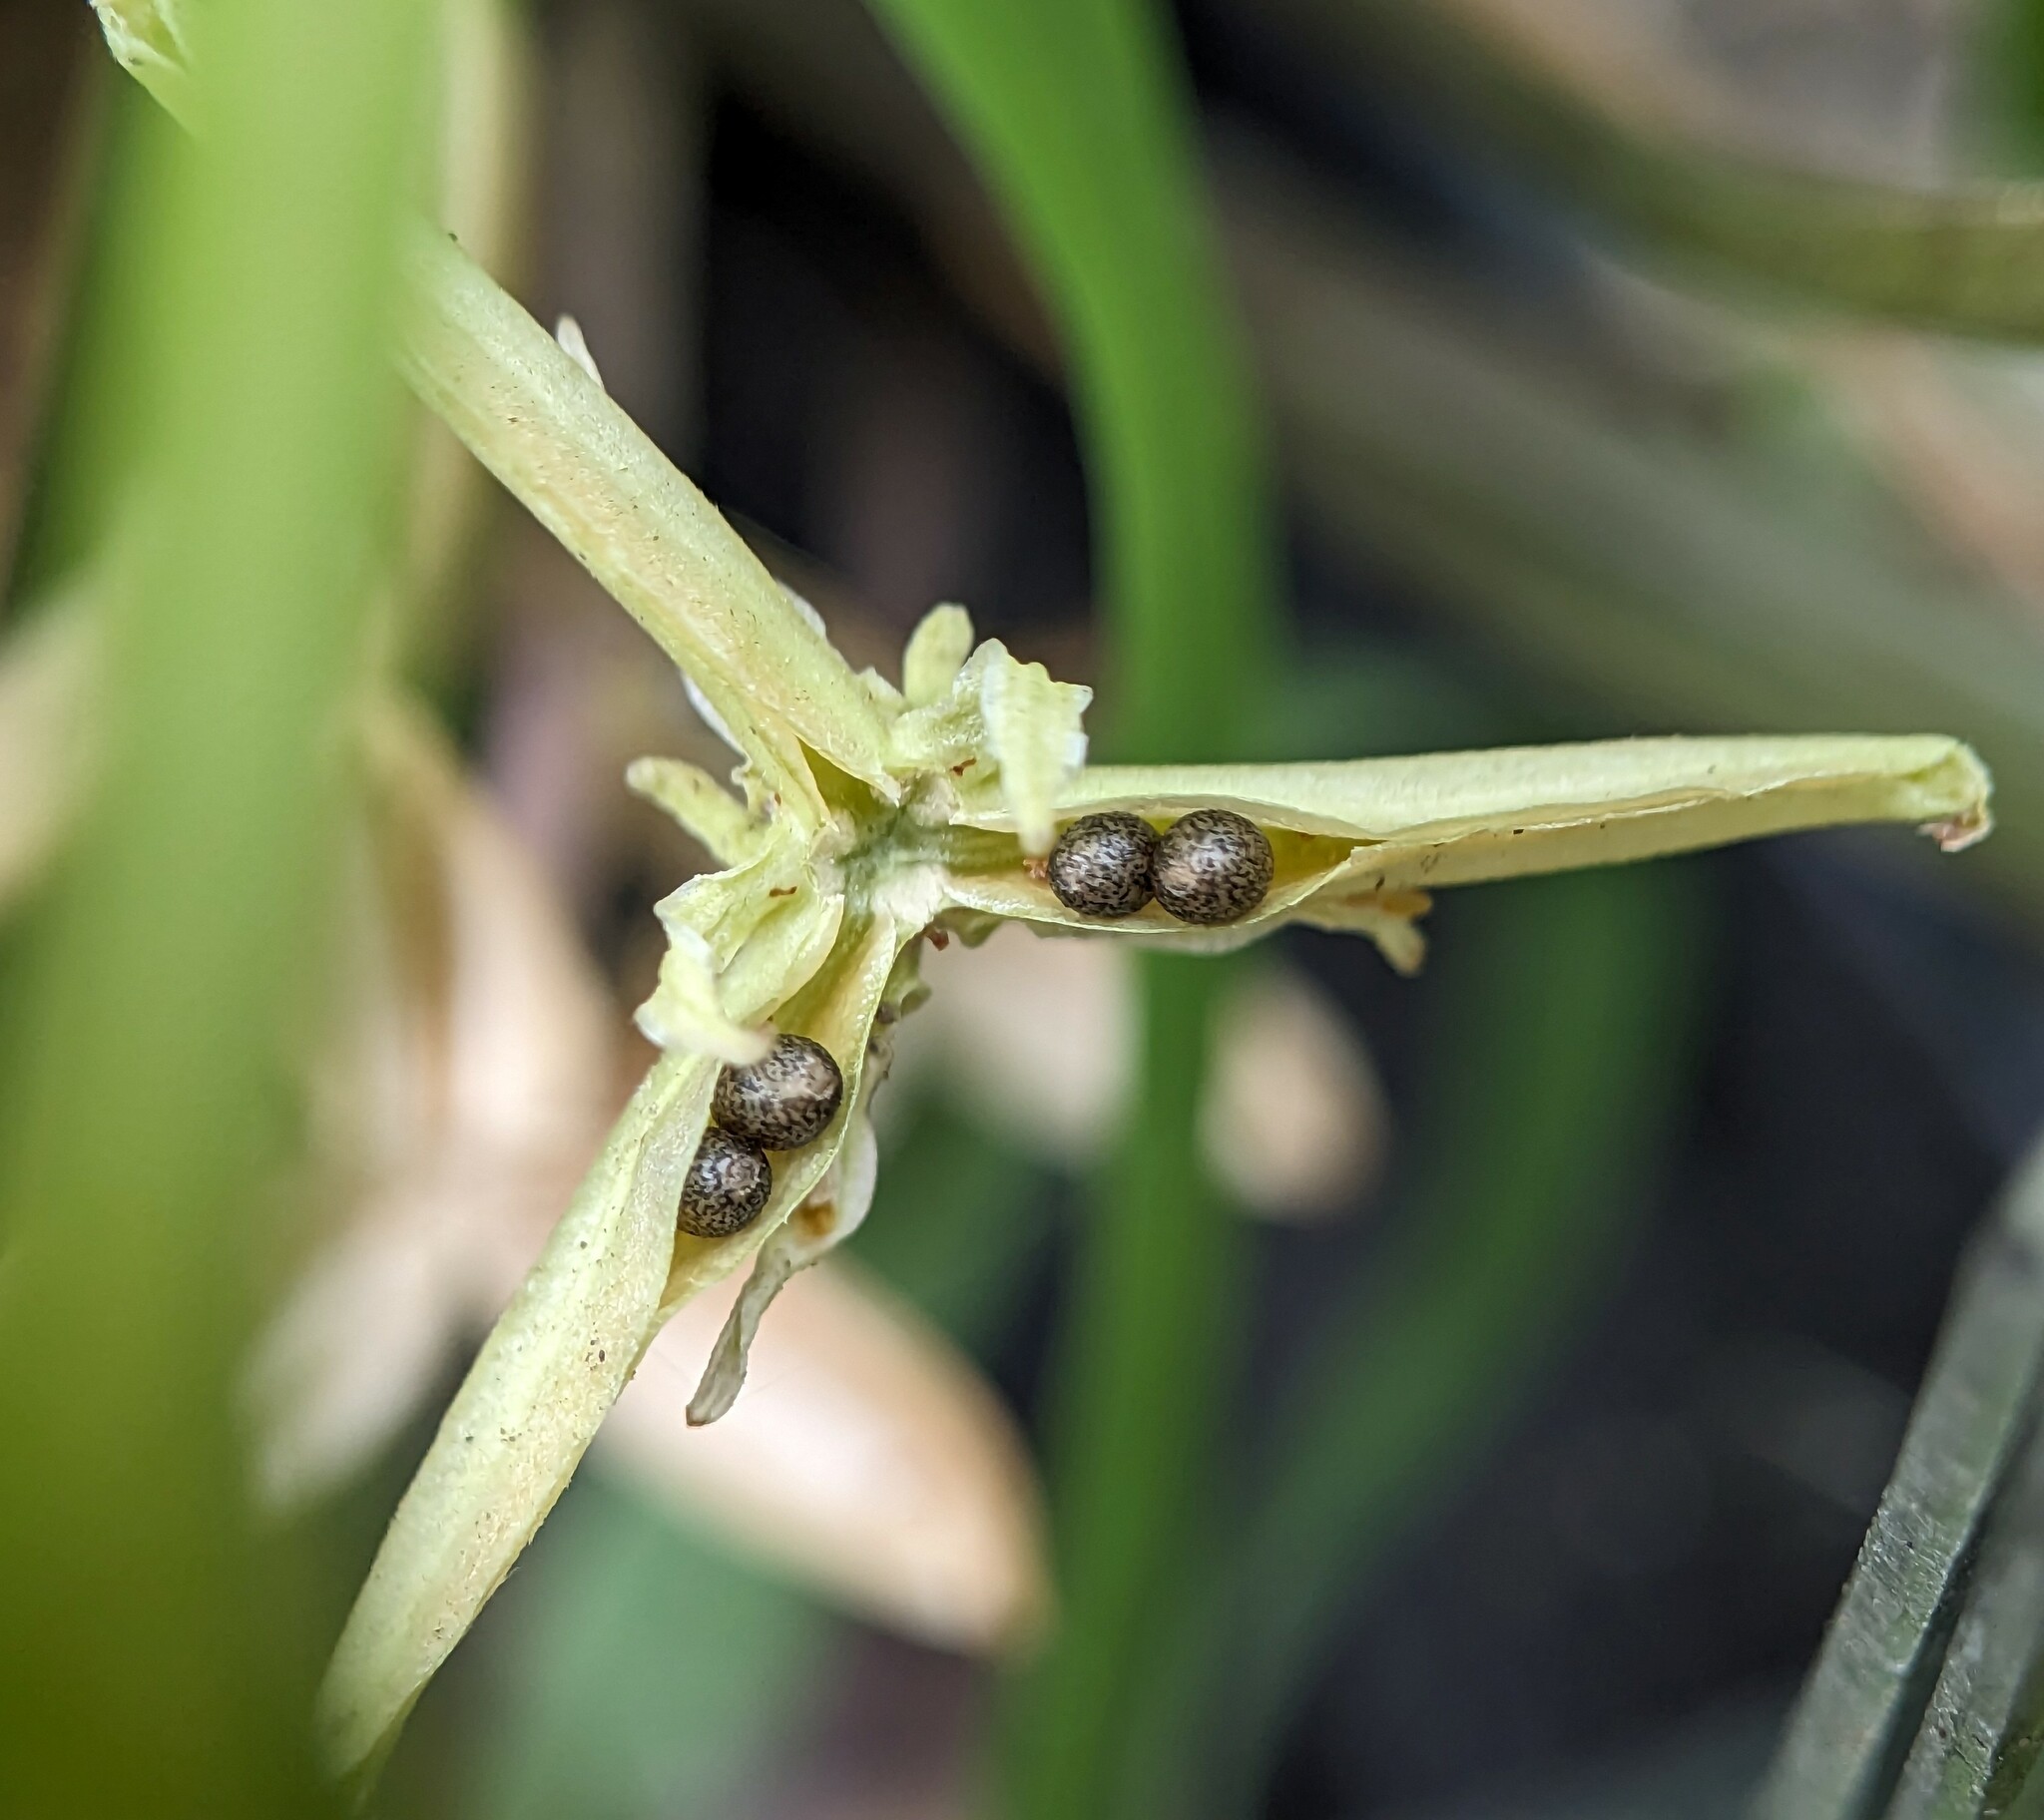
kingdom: Plantae
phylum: Tracheophyta
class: Magnoliopsida
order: Malpighiales
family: Violaceae
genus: Viola
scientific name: Viola sororia
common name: Dooryard violet
